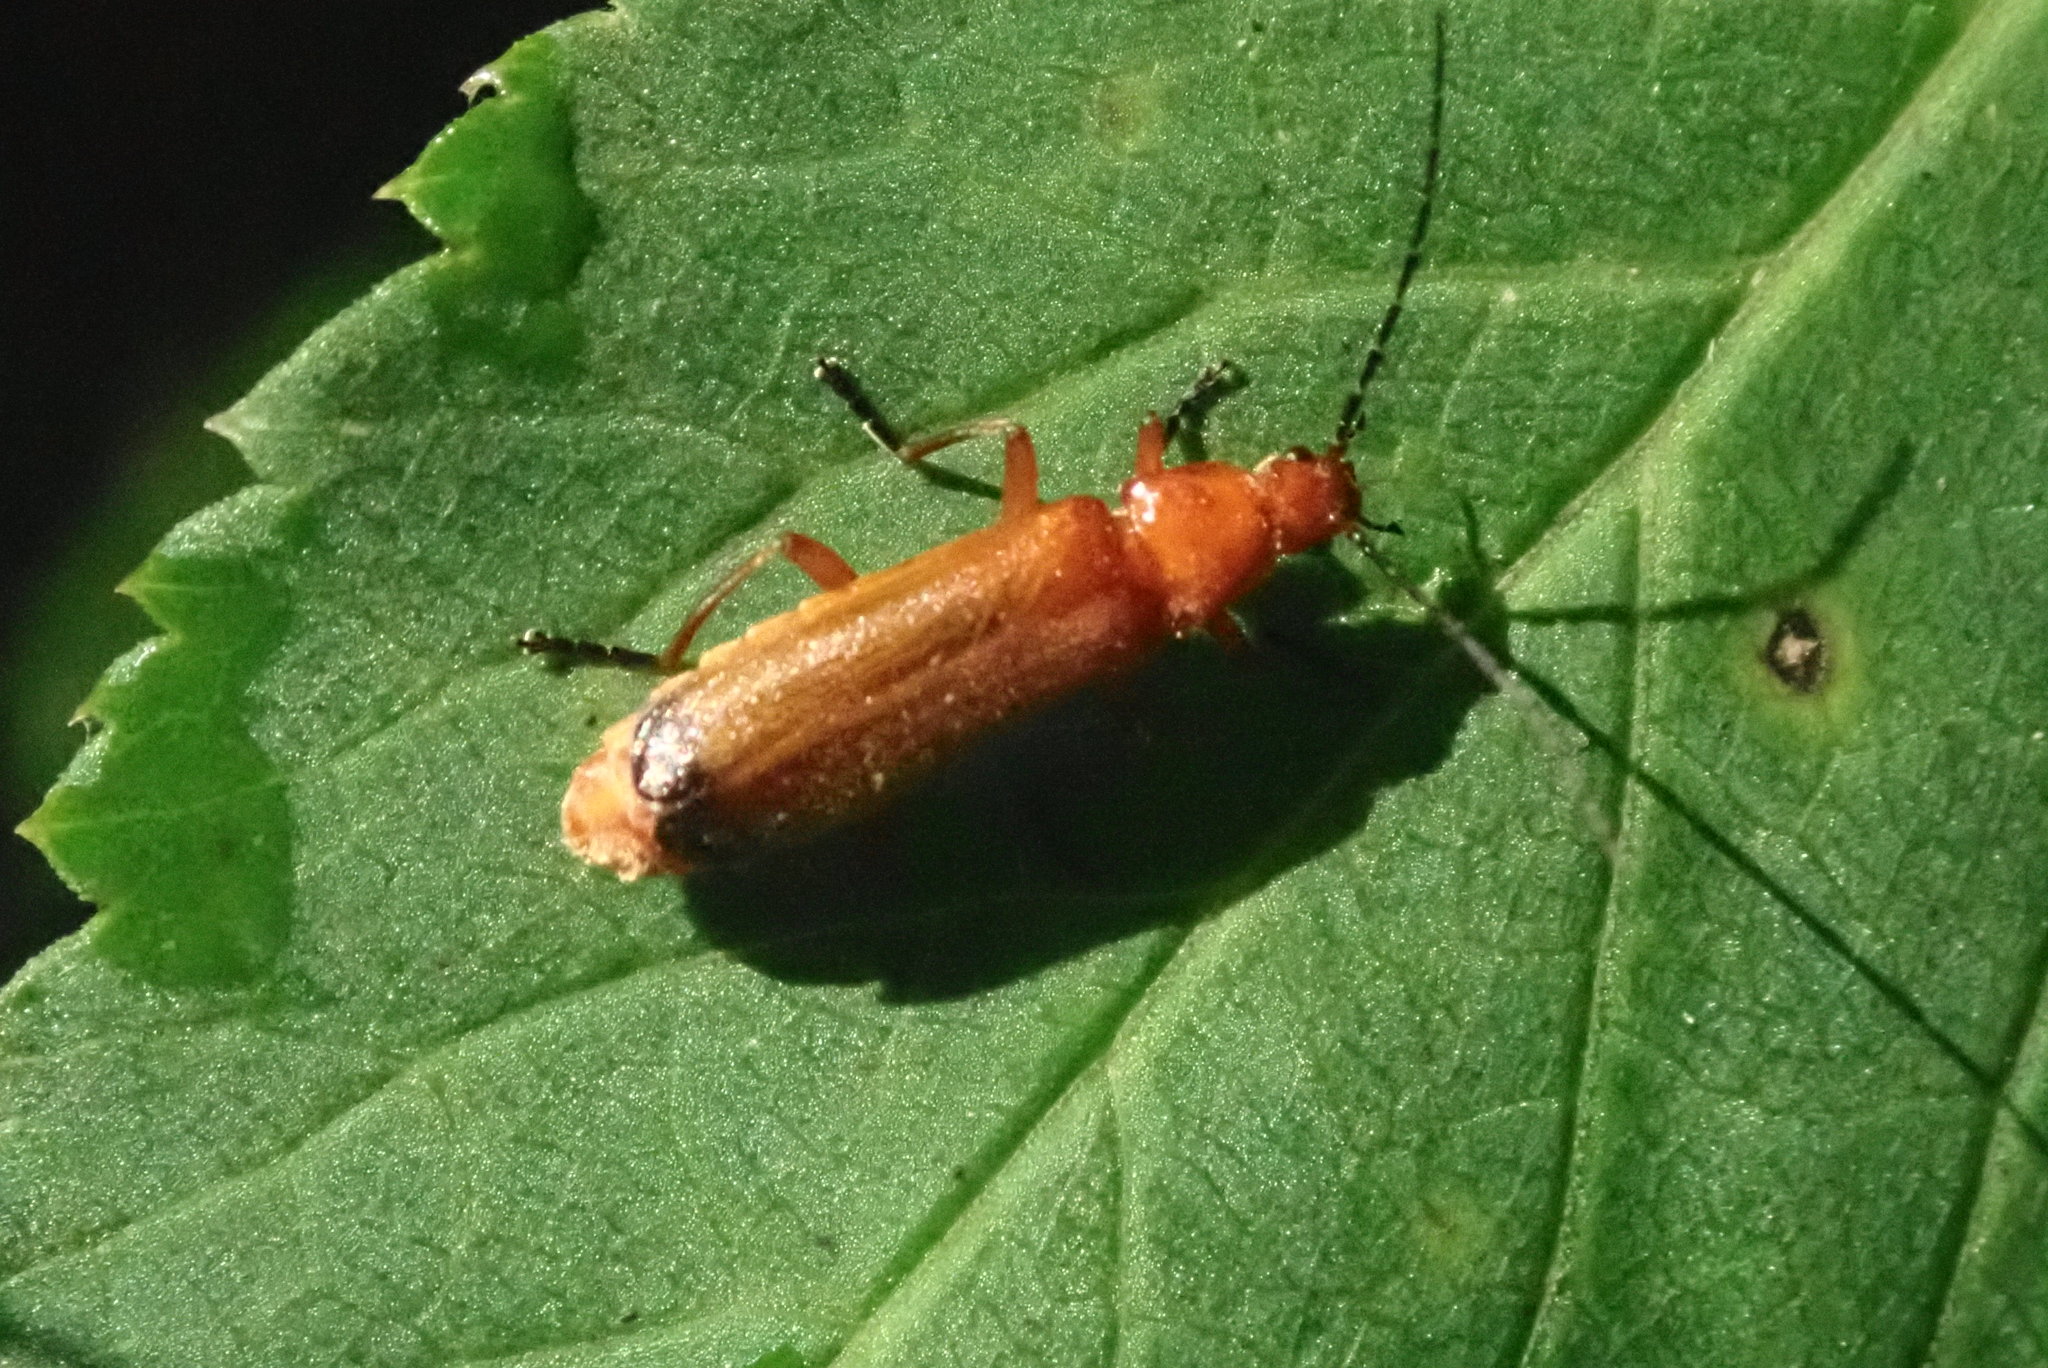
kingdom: Animalia
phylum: Arthropoda
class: Insecta
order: Coleoptera
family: Cantharidae
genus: Rhagonycha
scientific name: Rhagonycha fulva
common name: Common red soldier beetle
